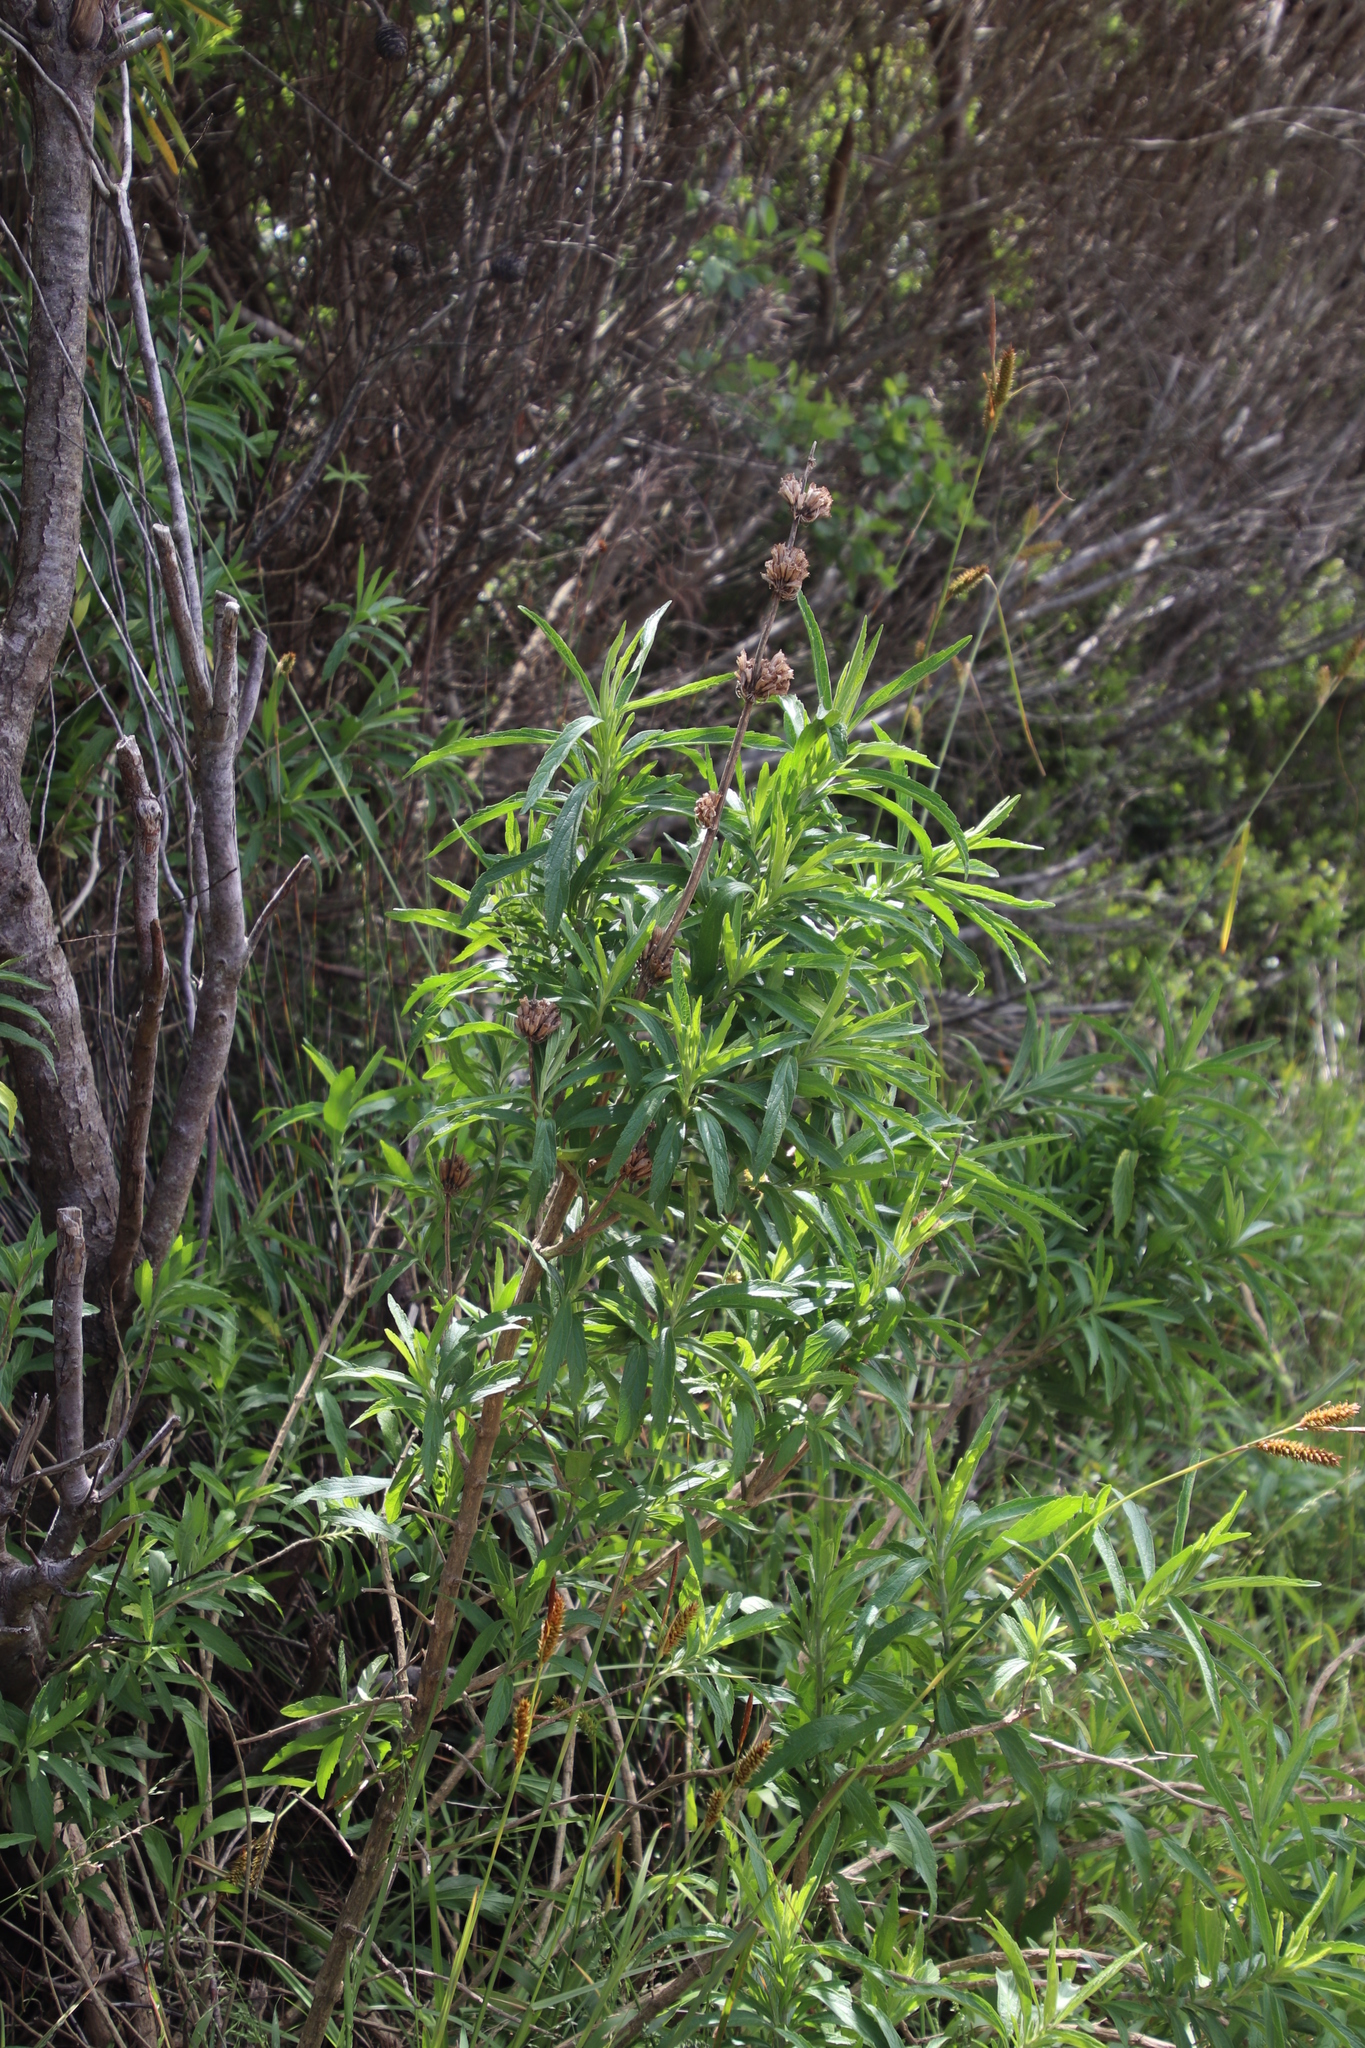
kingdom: Plantae
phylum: Tracheophyta
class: Magnoliopsida
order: Lamiales
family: Lamiaceae
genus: Leonotis
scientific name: Leonotis leonurus
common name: Lion's ear
